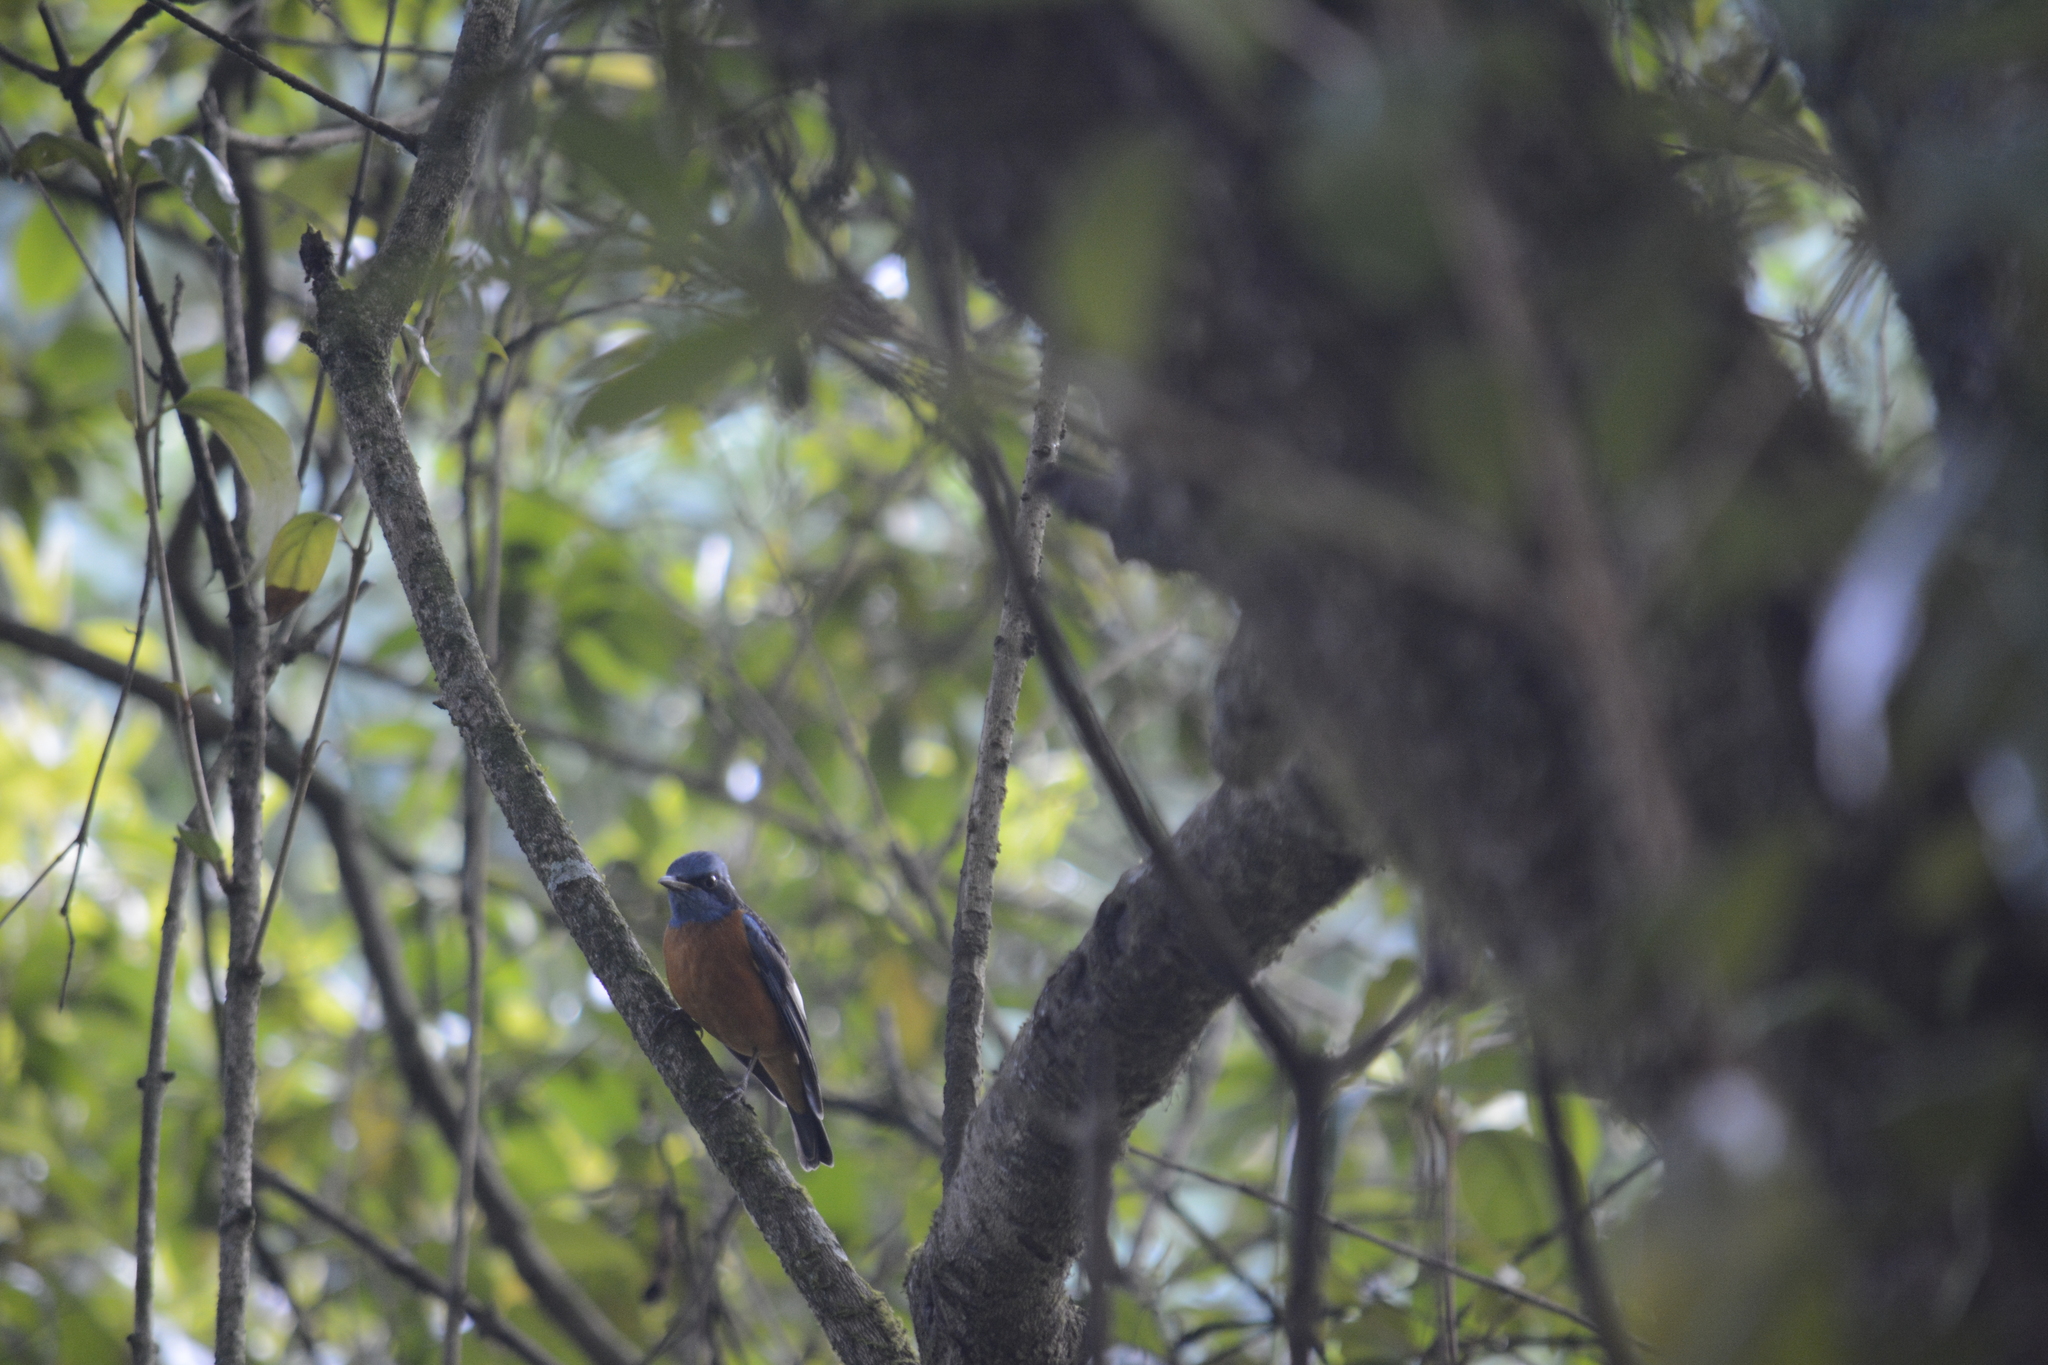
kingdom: Animalia
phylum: Chordata
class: Aves
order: Passeriformes
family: Muscicapidae
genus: Monticola
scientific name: Monticola cinclorhynchus
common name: Blue-capped rock thrush
